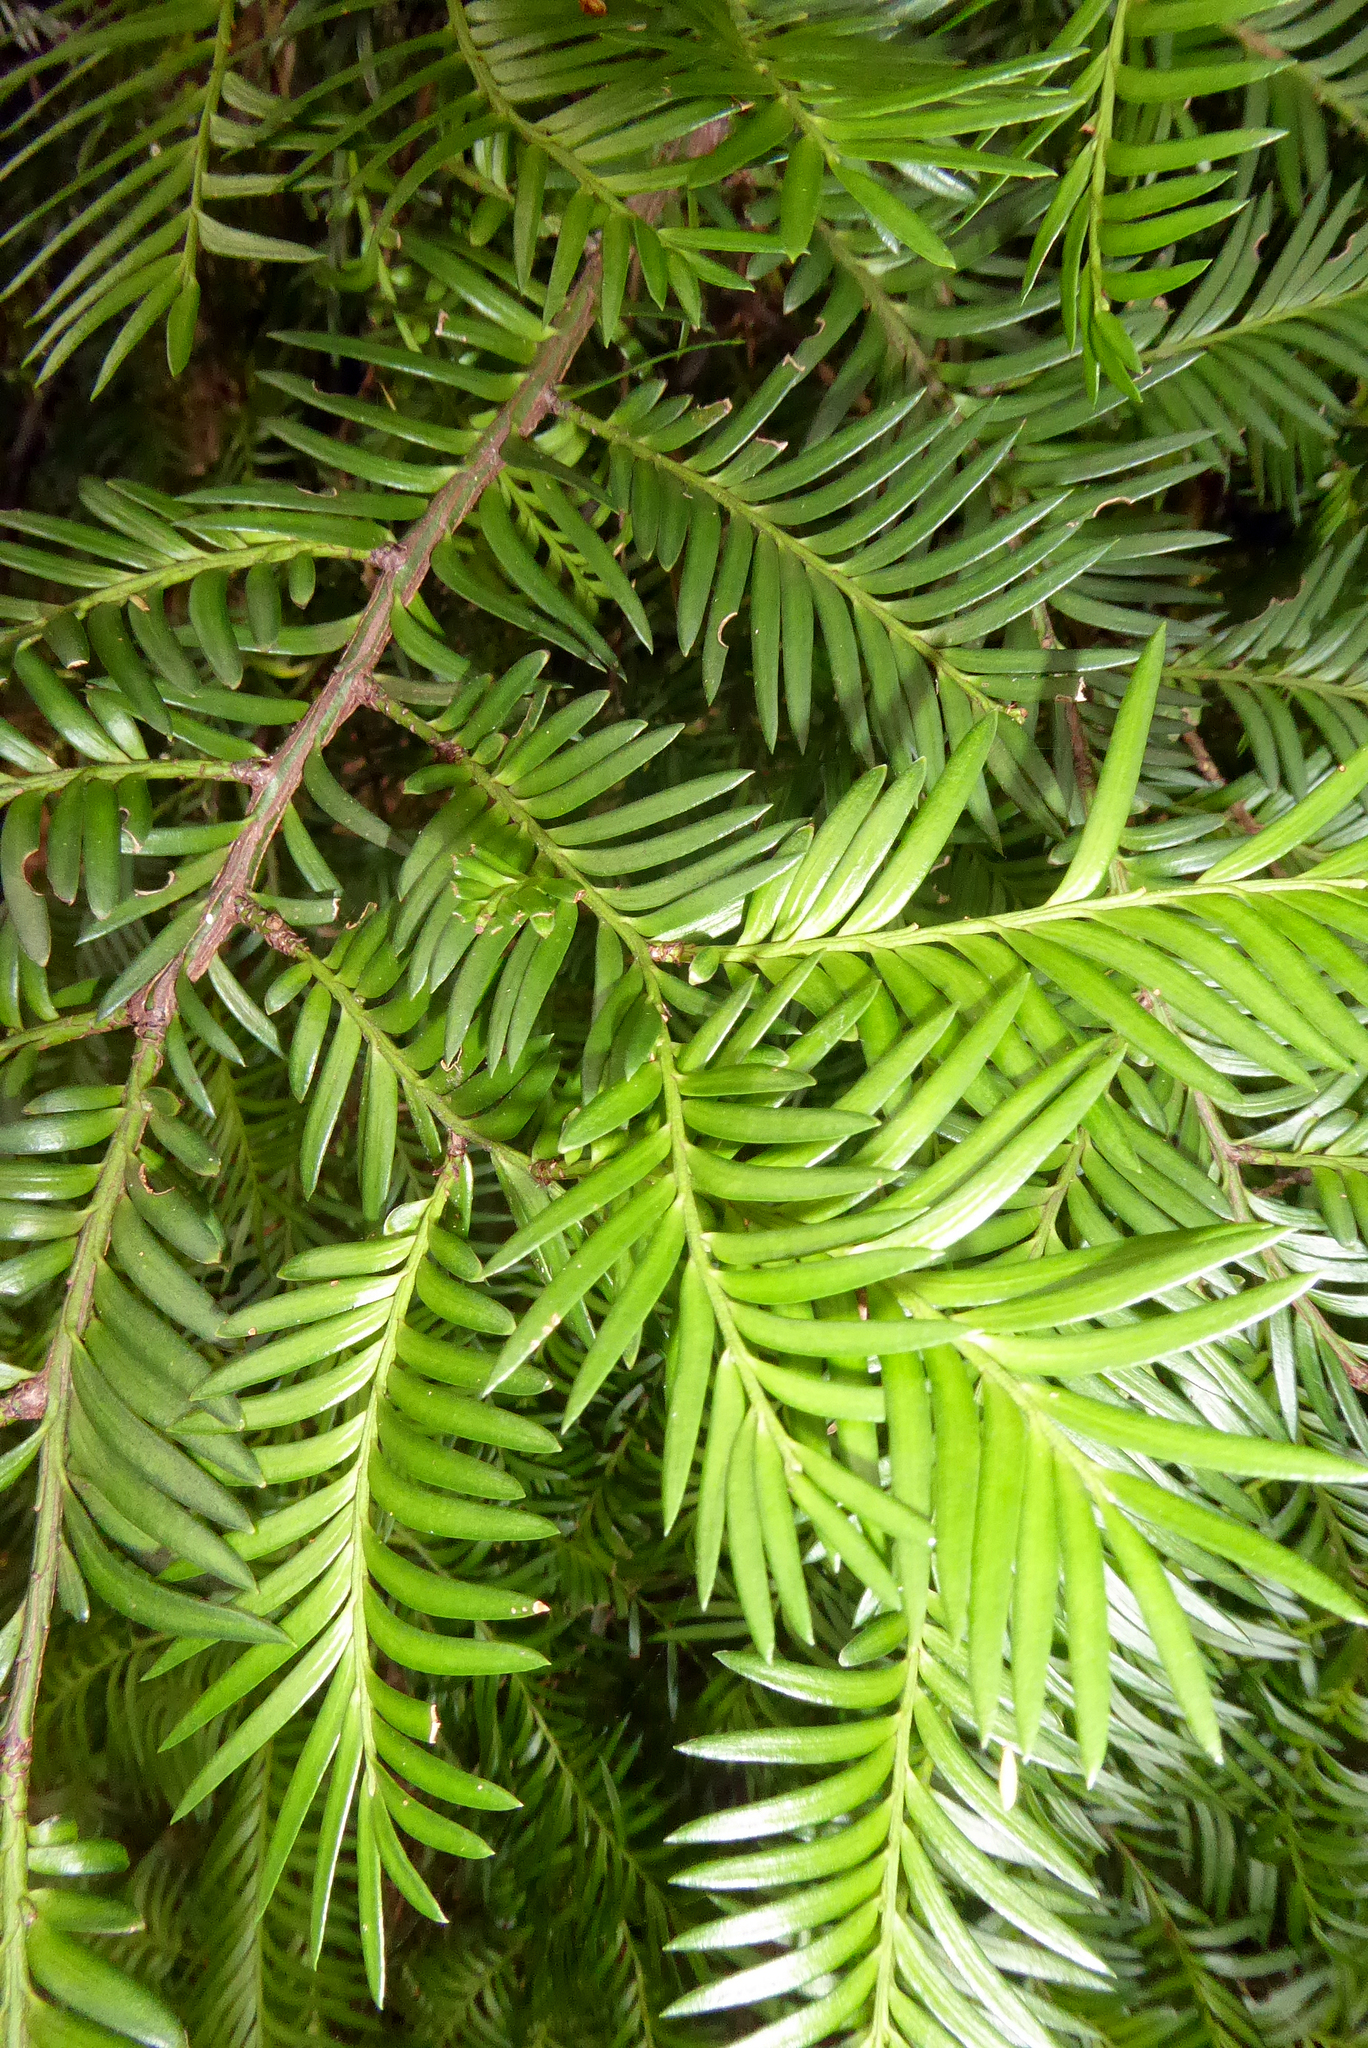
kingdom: Plantae
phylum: Tracheophyta
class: Pinopsida
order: Pinales
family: Podocarpaceae
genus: Prumnopitys
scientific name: Prumnopitys ferruginea
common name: Brown pine
